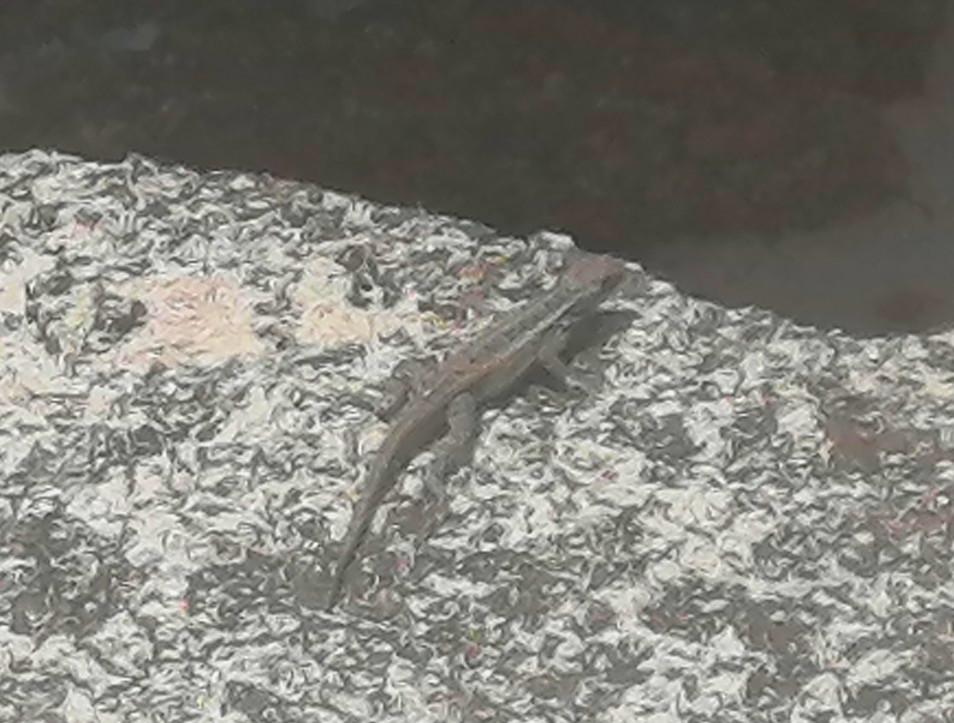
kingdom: Animalia
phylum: Chordata
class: Squamata
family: Phrynosomatidae
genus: Sceloporus
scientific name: Sceloporus cozumelae
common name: Cozumel spiny lizard
